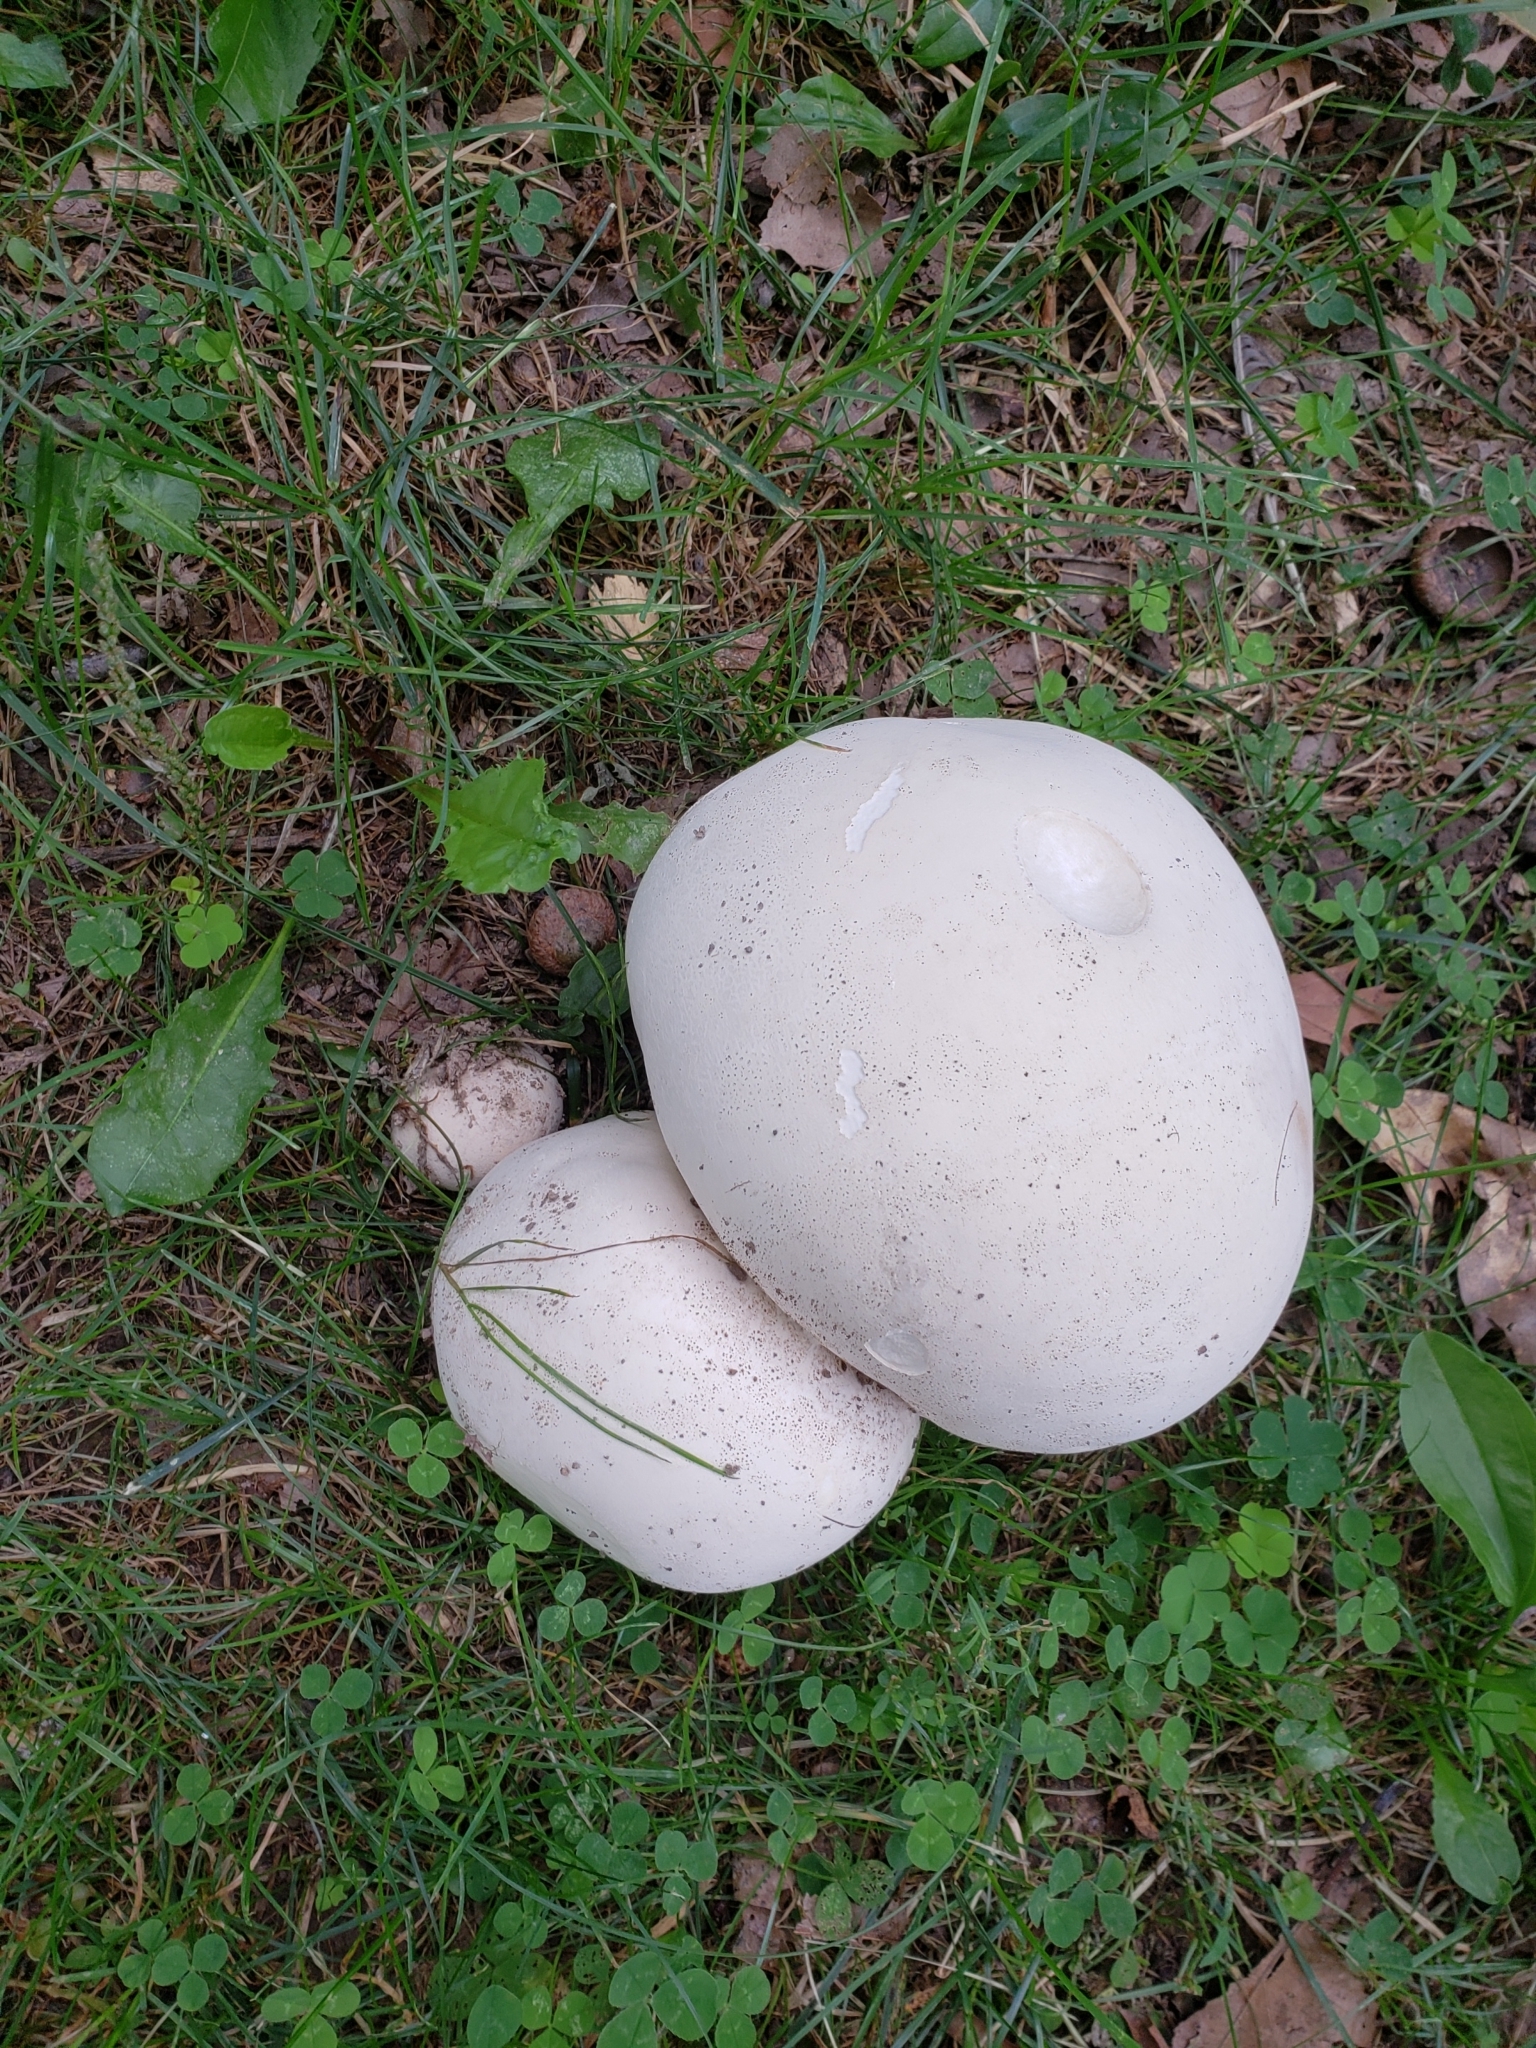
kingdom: Fungi
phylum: Basidiomycota
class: Agaricomycetes
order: Agaricales
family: Lycoperdaceae
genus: Calvatia
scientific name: Calvatia gigantea
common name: Giant puffball
